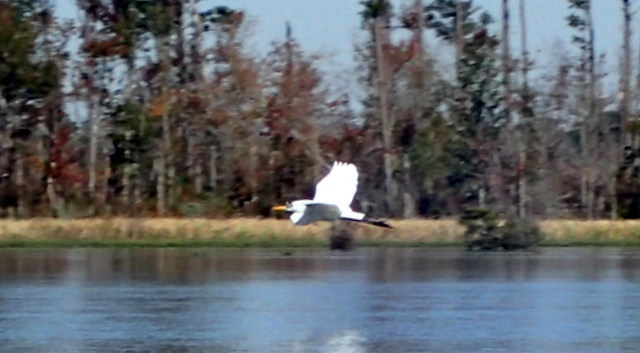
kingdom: Animalia
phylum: Chordata
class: Aves
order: Pelecaniformes
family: Ardeidae
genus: Ardea
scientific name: Ardea alba
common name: Great egret
